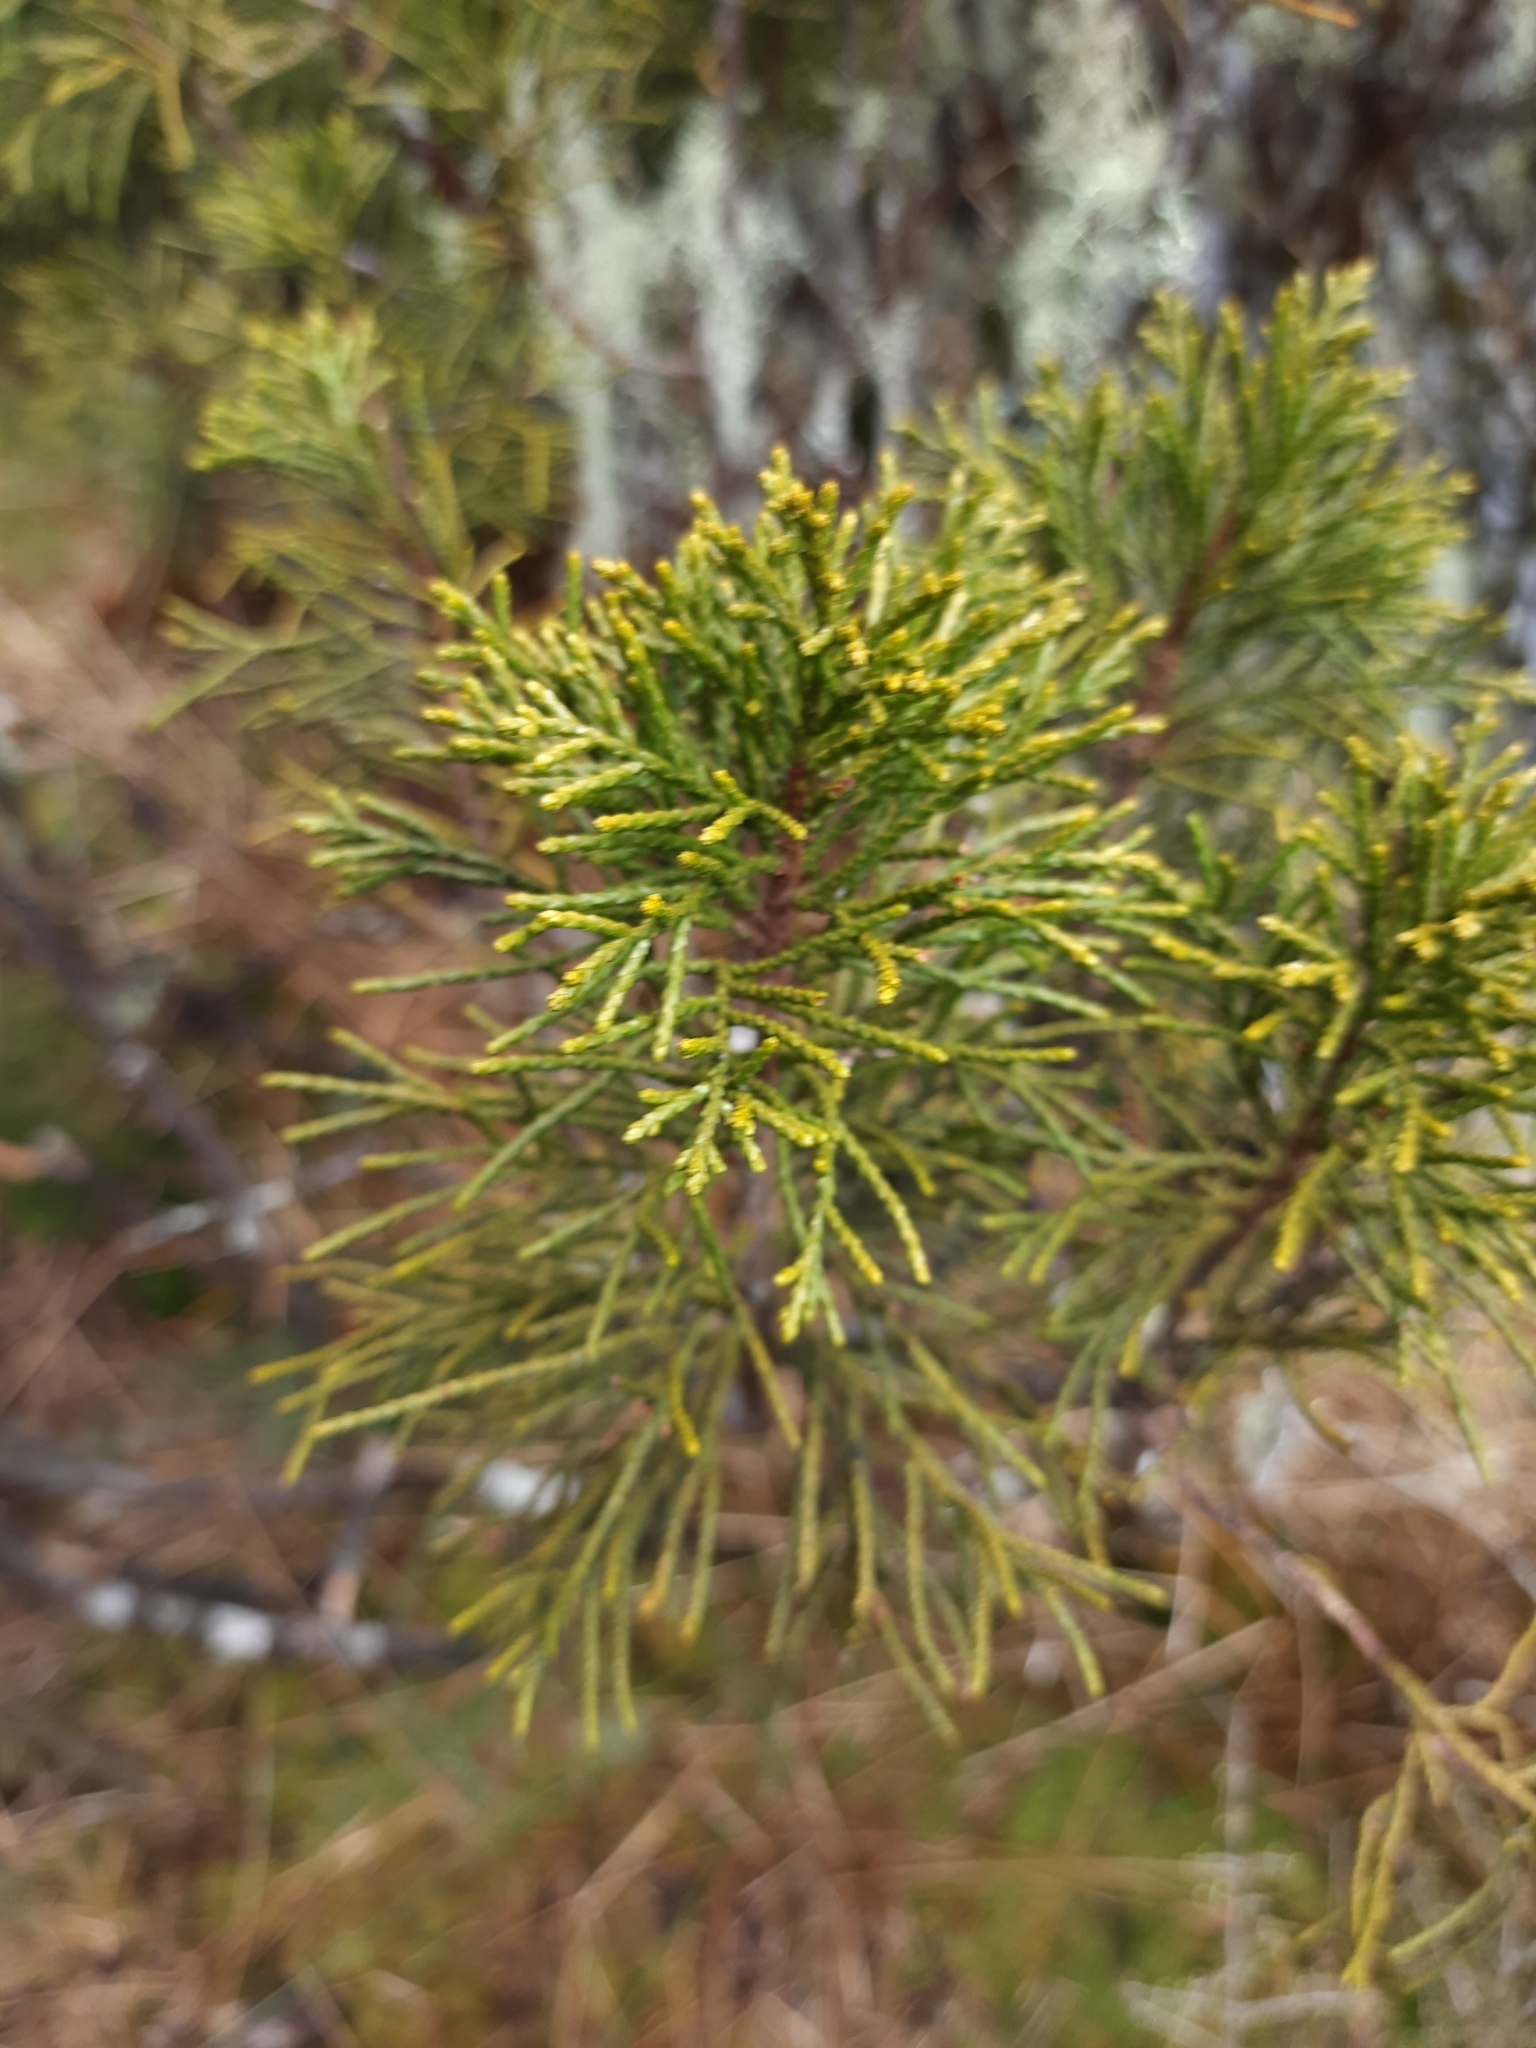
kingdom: Plantae
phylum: Tracheophyta
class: Pinopsida
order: Pinales
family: Podocarpaceae
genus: Halocarpus
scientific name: Halocarpus bidwillii
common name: Bog pine
